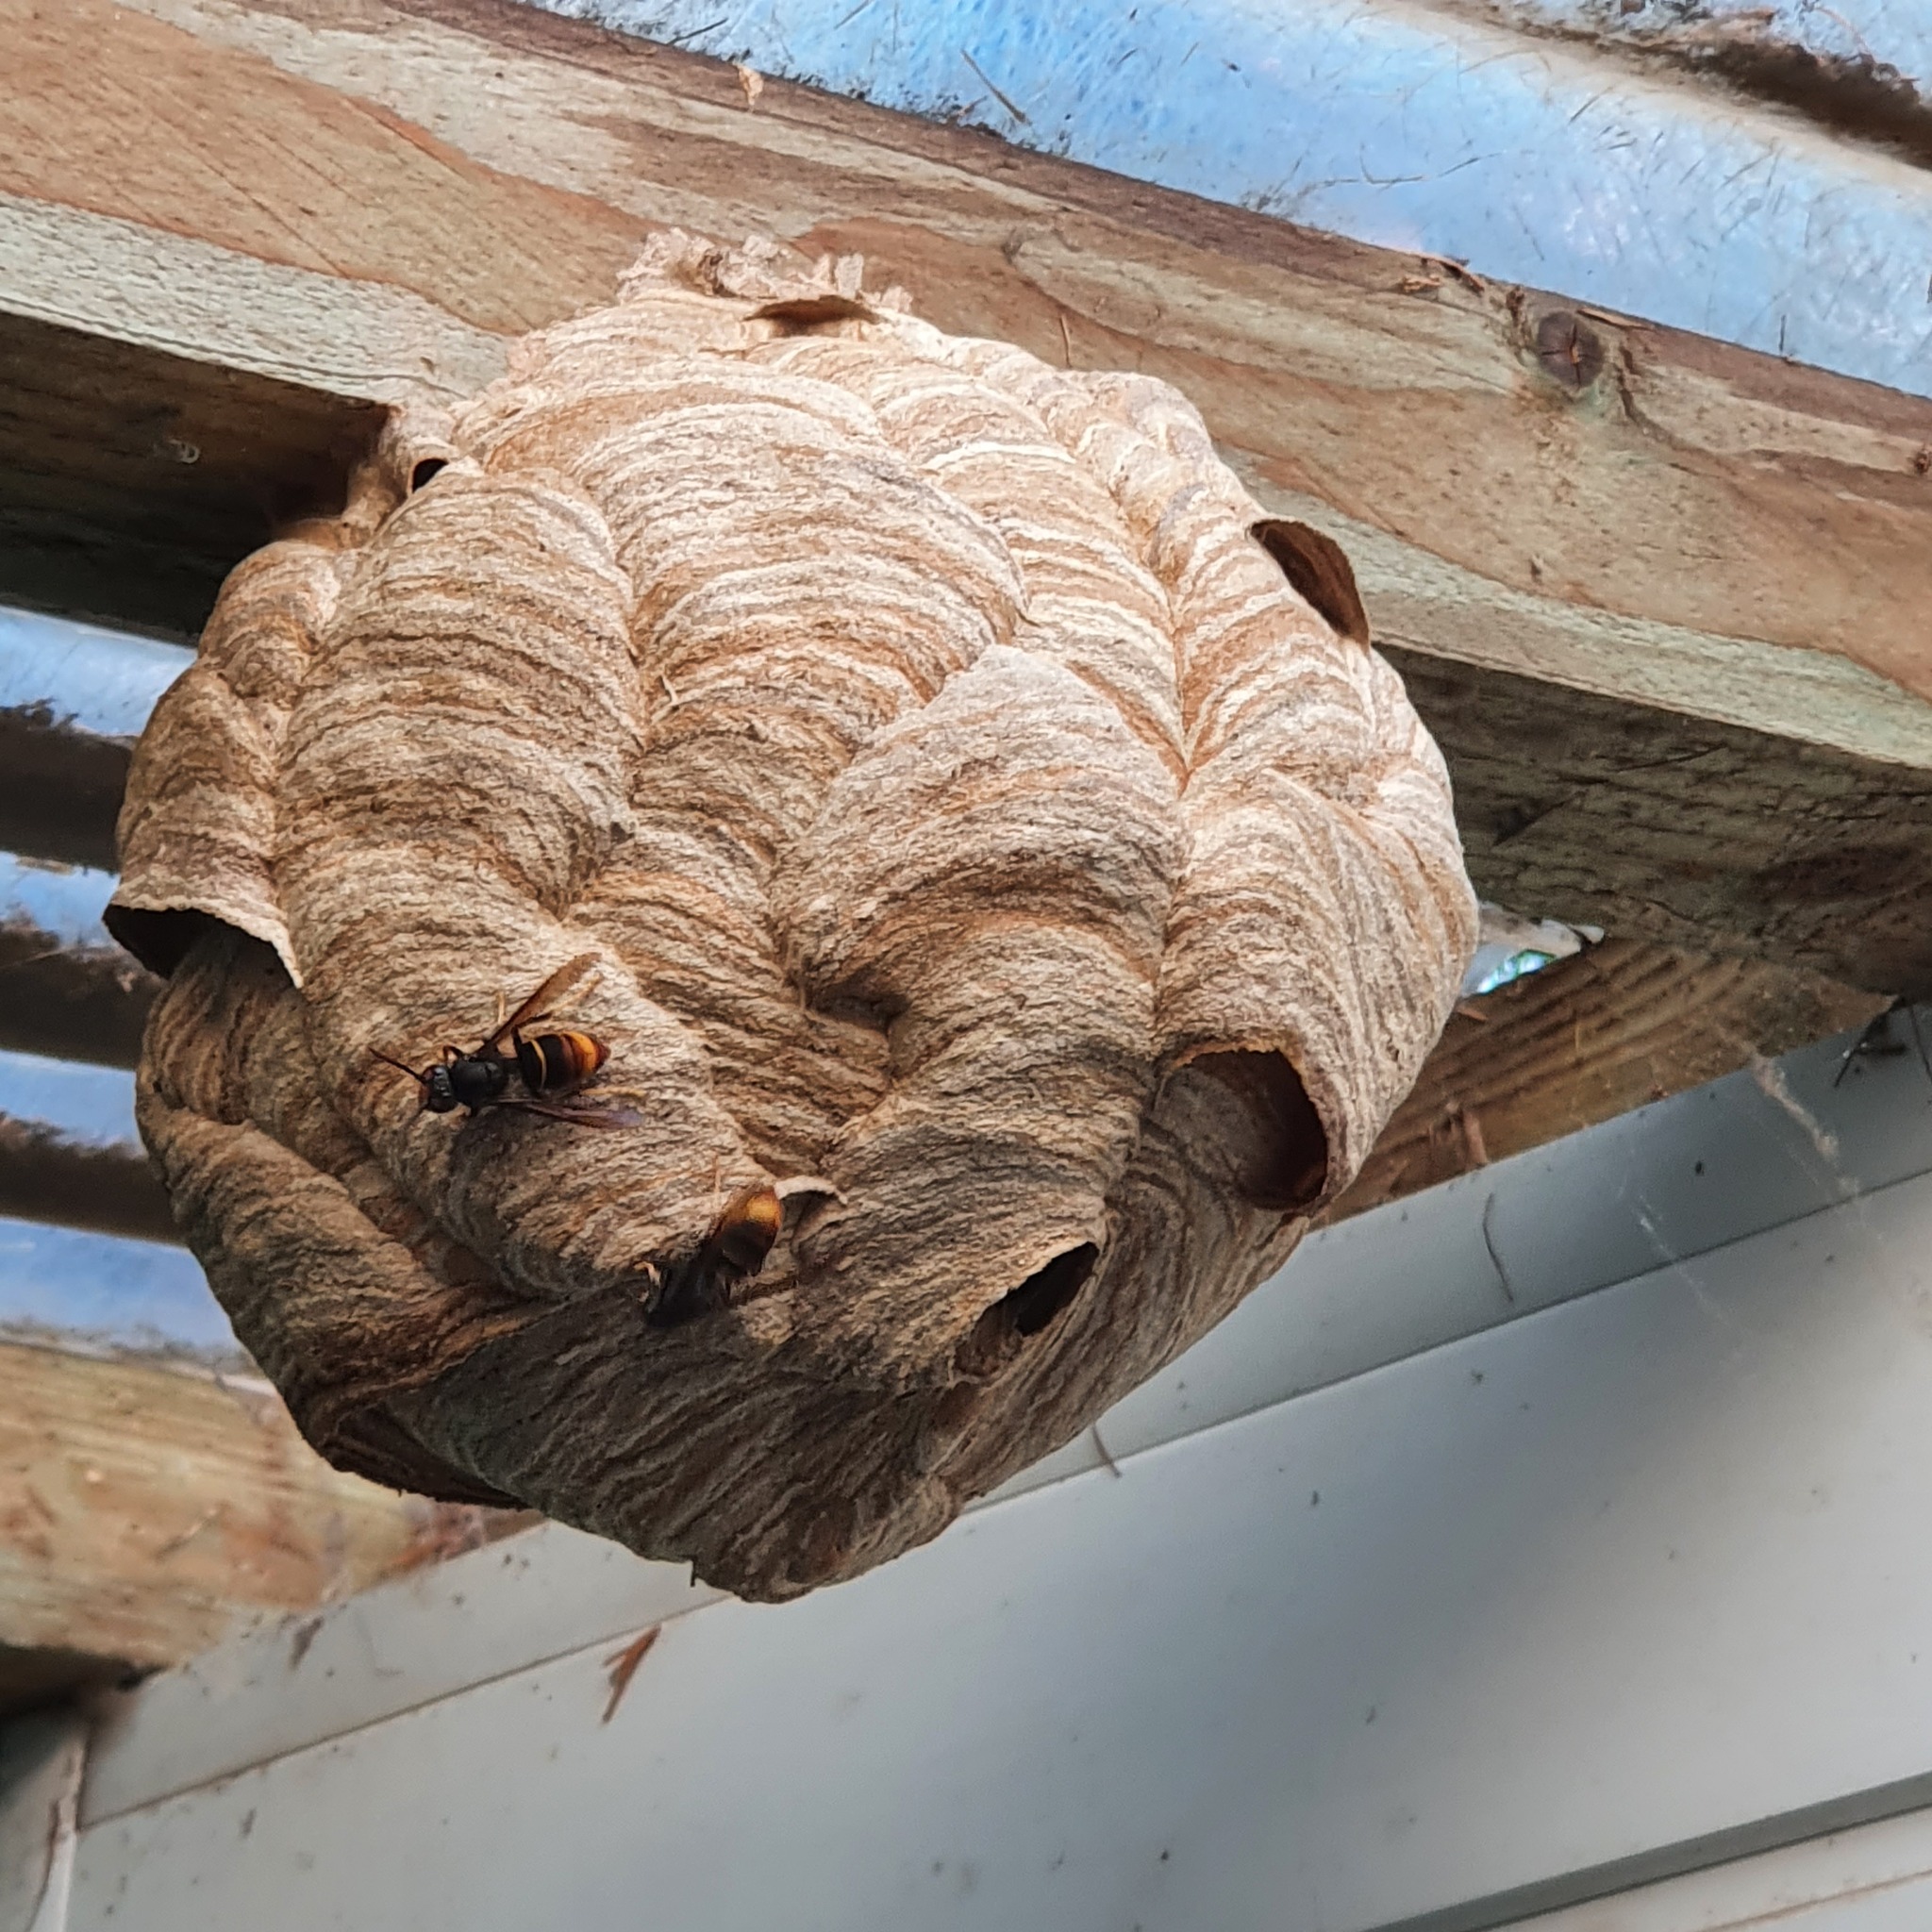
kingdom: Animalia
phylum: Arthropoda
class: Insecta
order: Hymenoptera
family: Vespidae
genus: Vespa
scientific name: Vespa velutina
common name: Asian hornet
